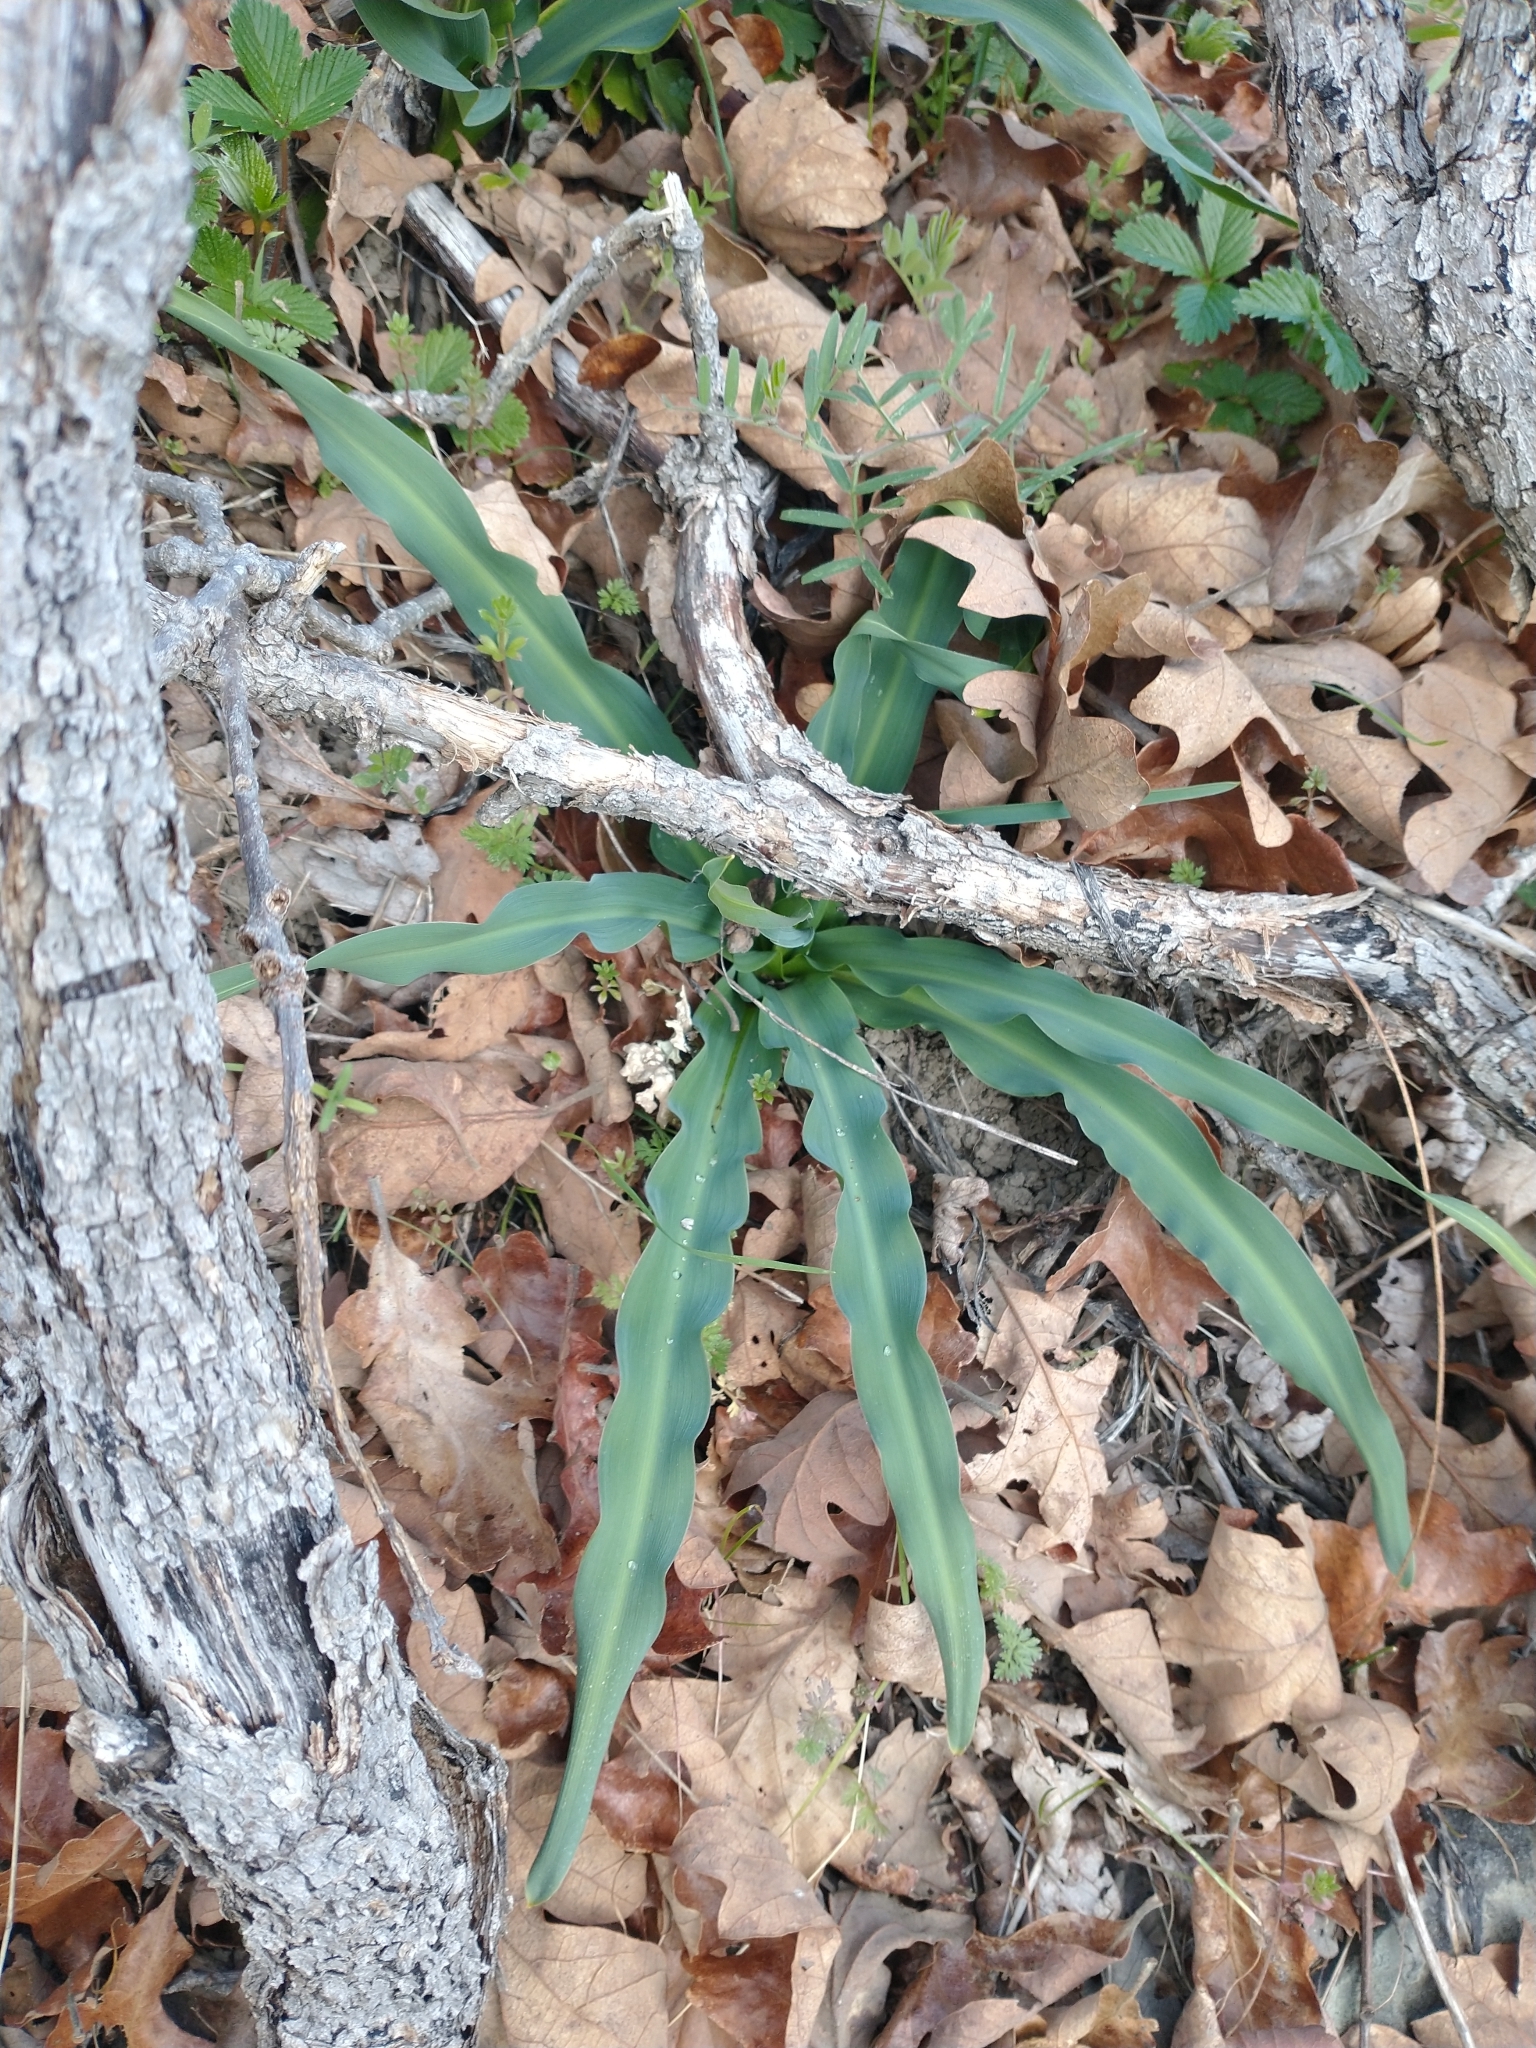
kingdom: Plantae
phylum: Tracheophyta
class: Liliopsida
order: Asparagales
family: Asparagaceae
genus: Chlorogalum
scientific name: Chlorogalum pomeridianum
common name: Amole
